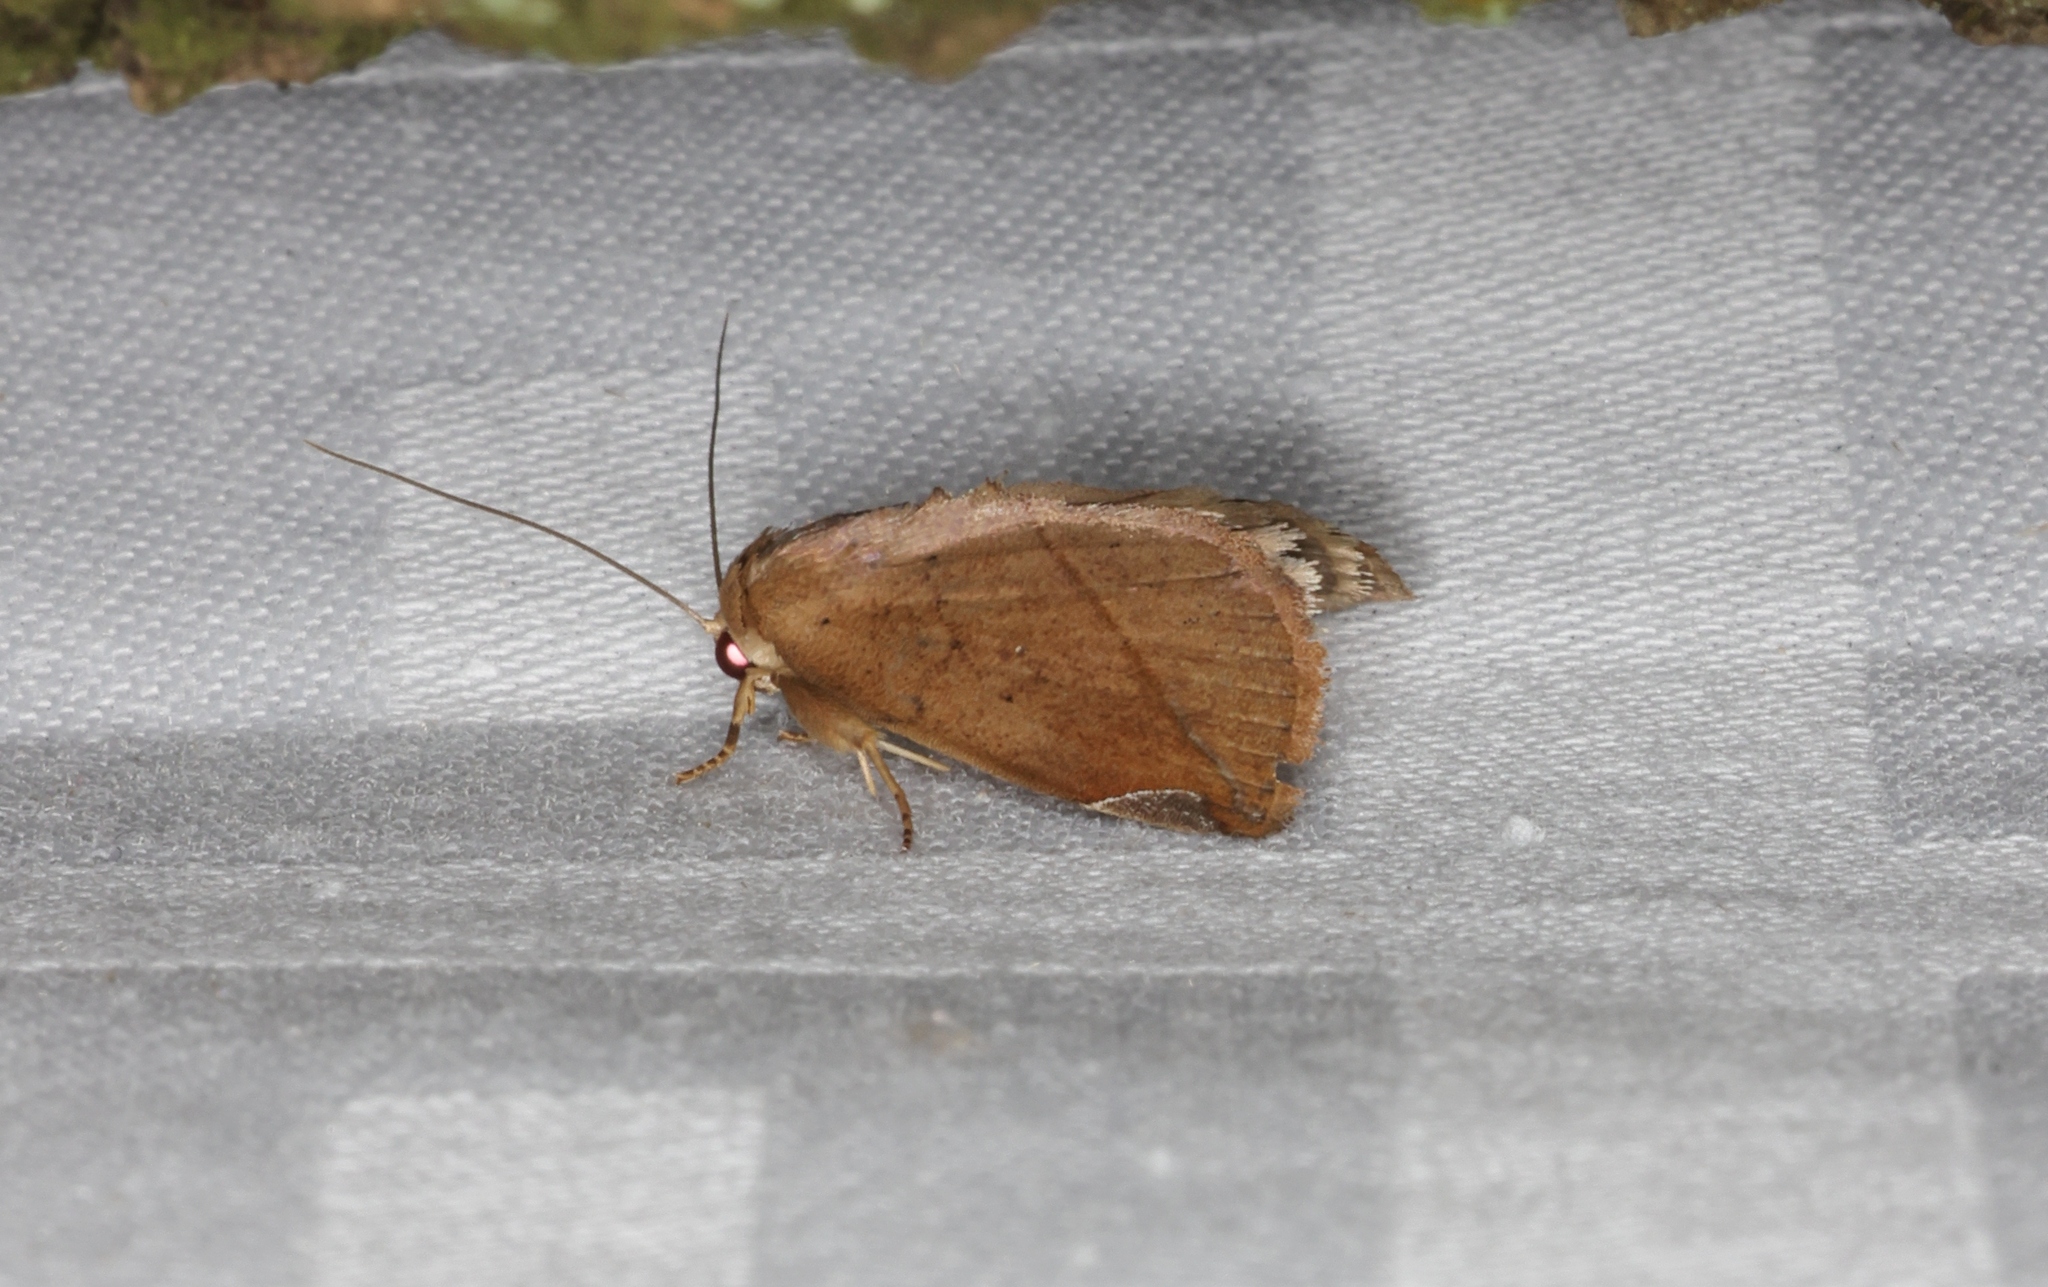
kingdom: Animalia
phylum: Arthropoda
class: Insecta
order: Lepidoptera
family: Nolidae
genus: Negeta
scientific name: Negeta contrariata
